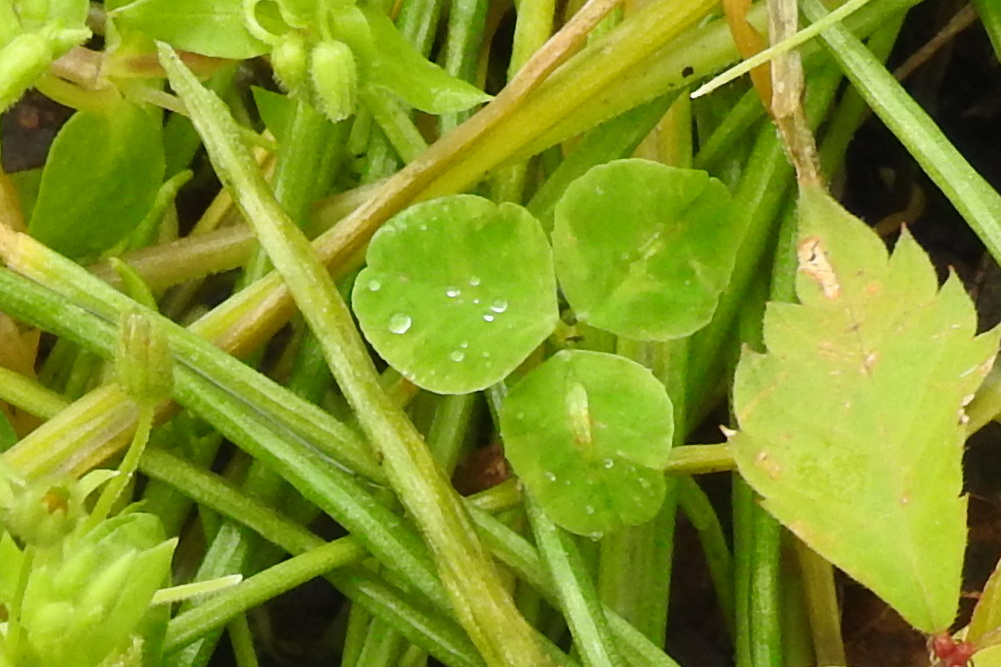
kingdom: Plantae
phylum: Tracheophyta
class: Magnoliopsida
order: Fabales
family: Fabaceae
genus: Trifolium
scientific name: Trifolium repens
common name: White clover
